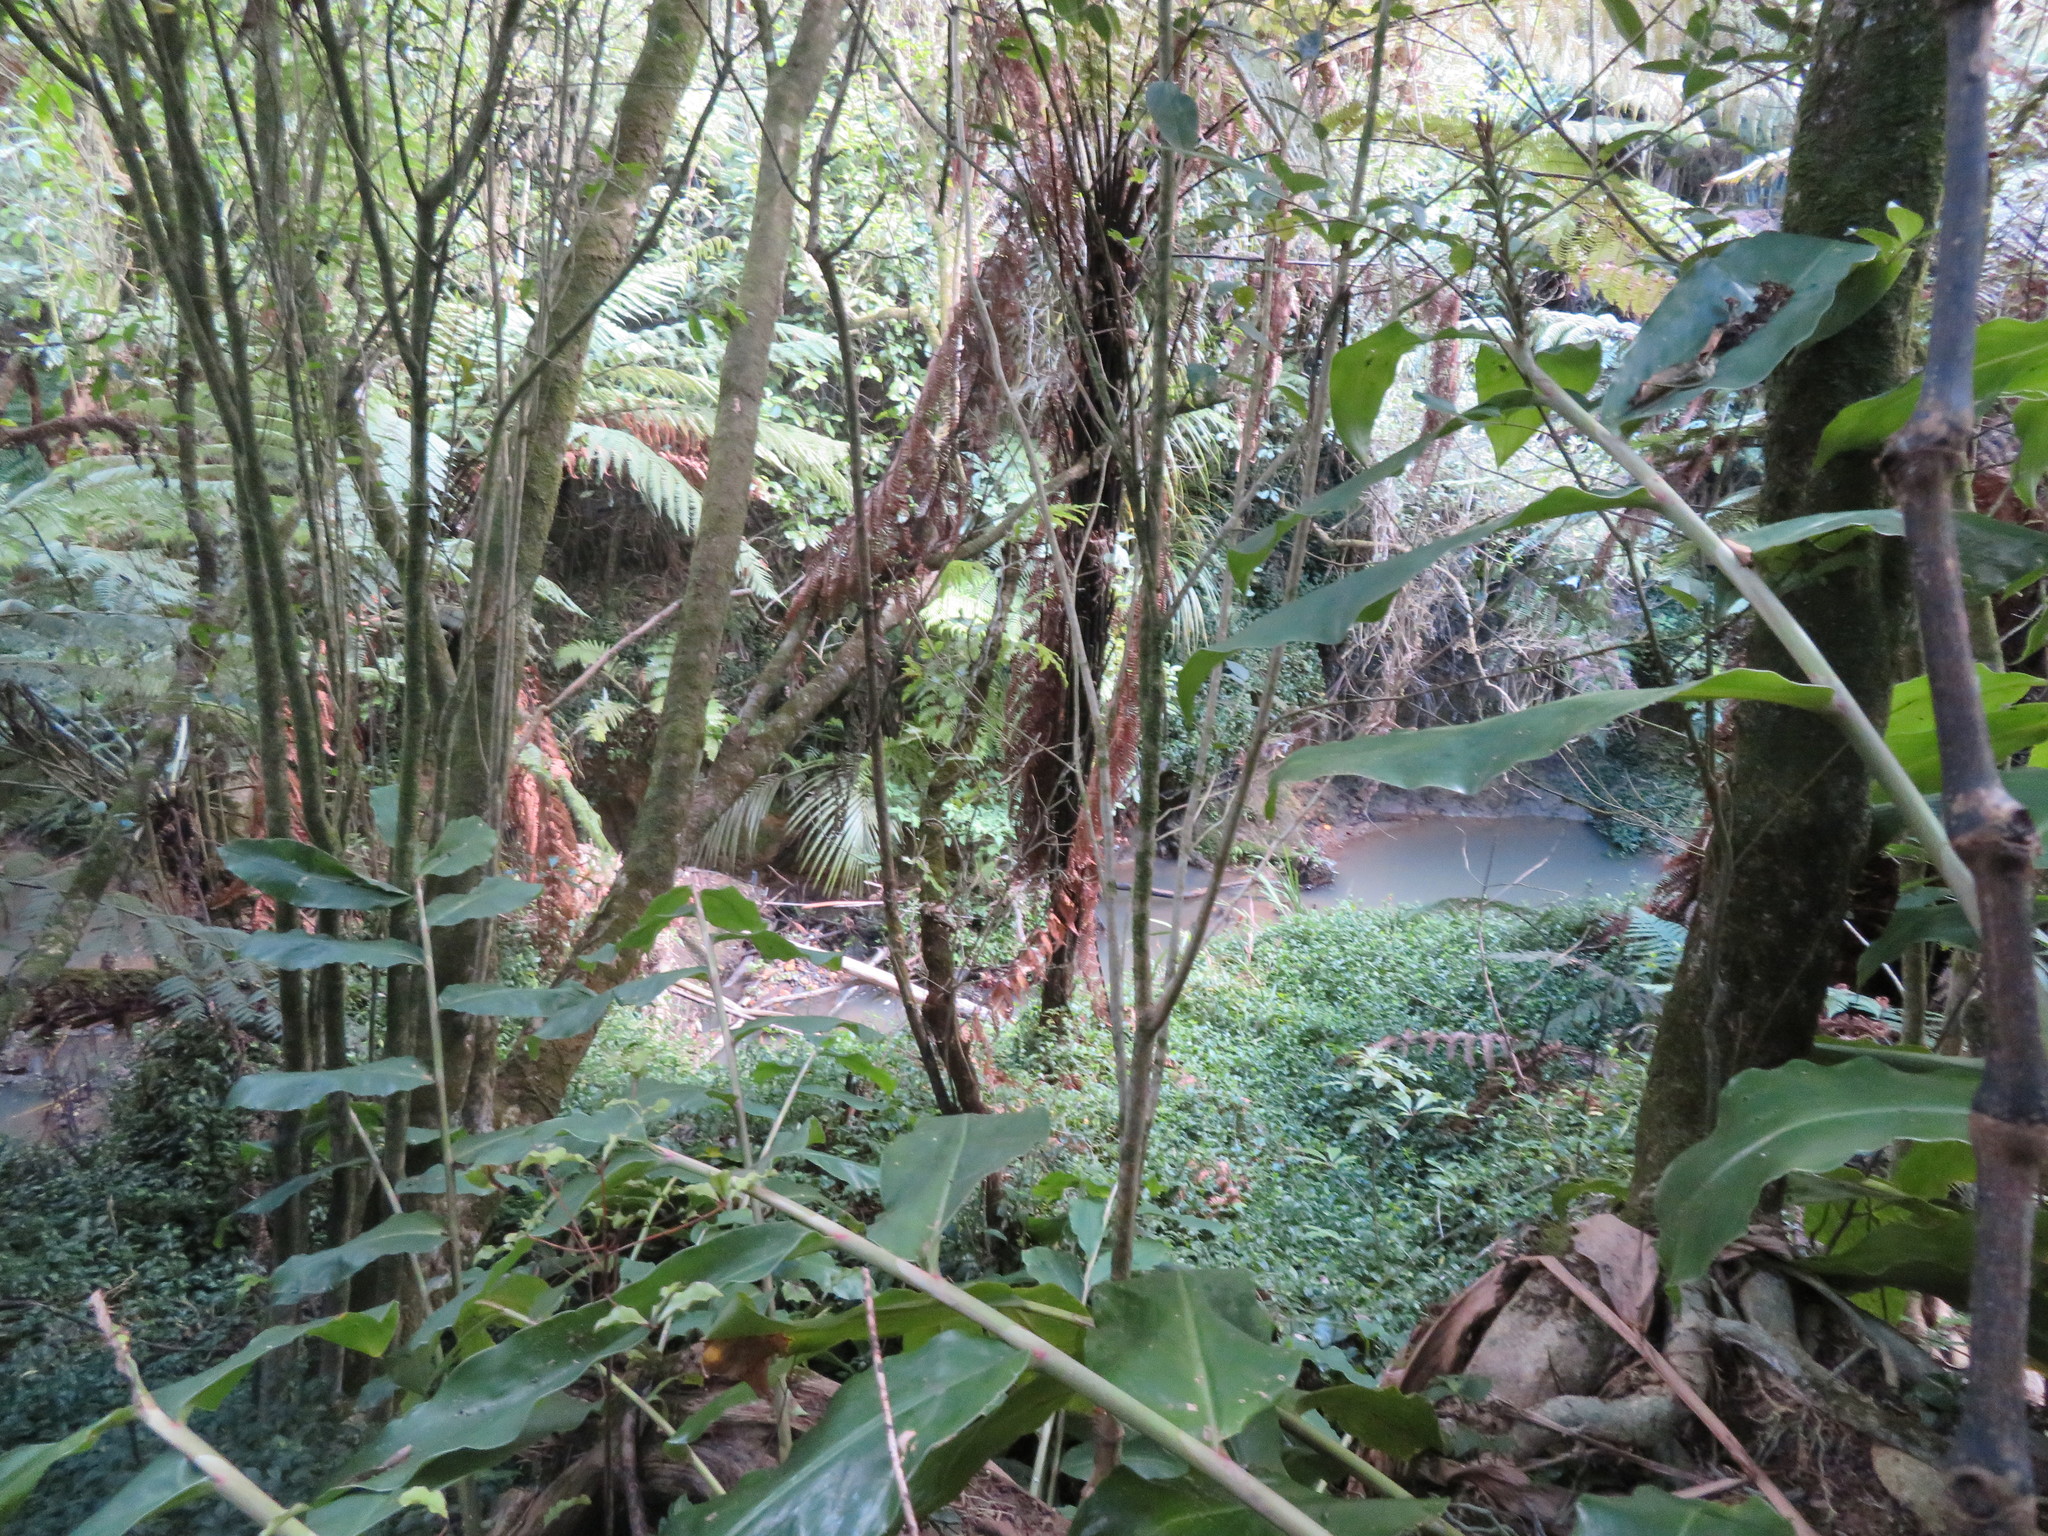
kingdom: Plantae
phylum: Tracheophyta
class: Magnoliopsida
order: Apiales
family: Araliaceae
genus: Schefflera
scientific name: Schefflera digitata
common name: Pate
